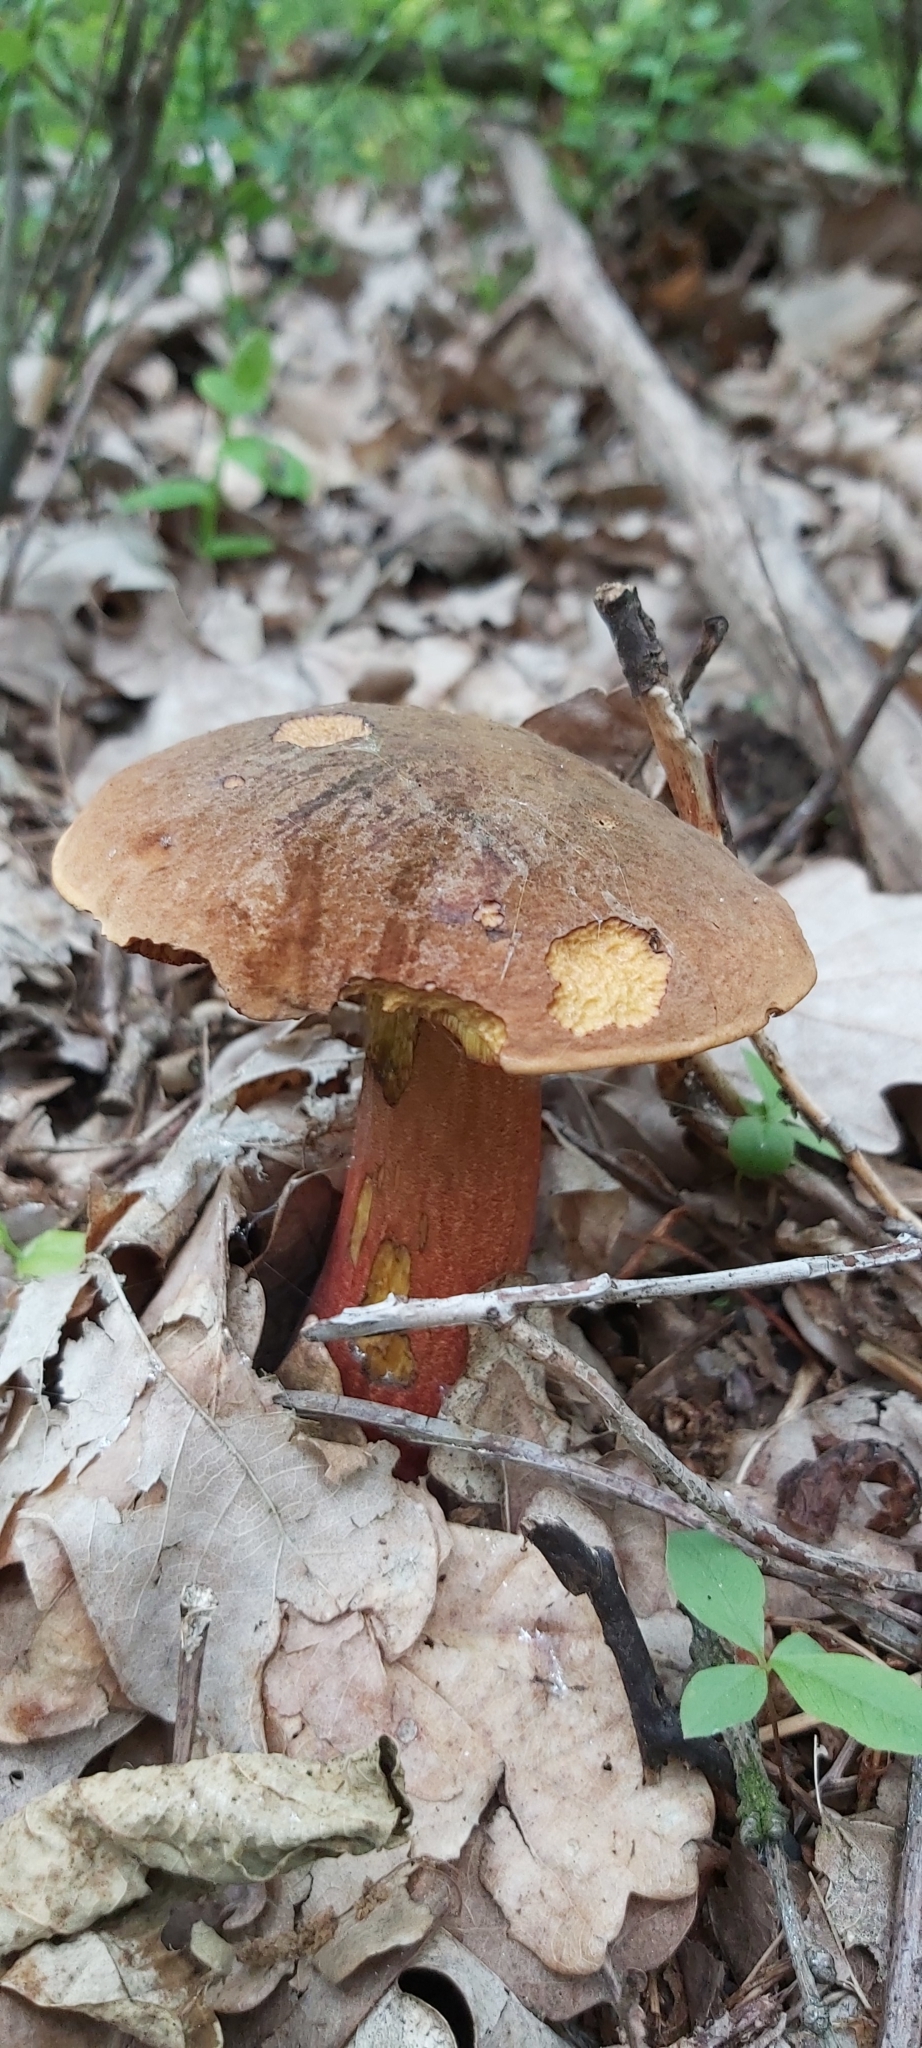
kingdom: Fungi
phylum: Basidiomycota
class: Agaricomycetes
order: Boletales
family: Boletaceae
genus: Neoboletus
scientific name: Neoboletus erythropus
